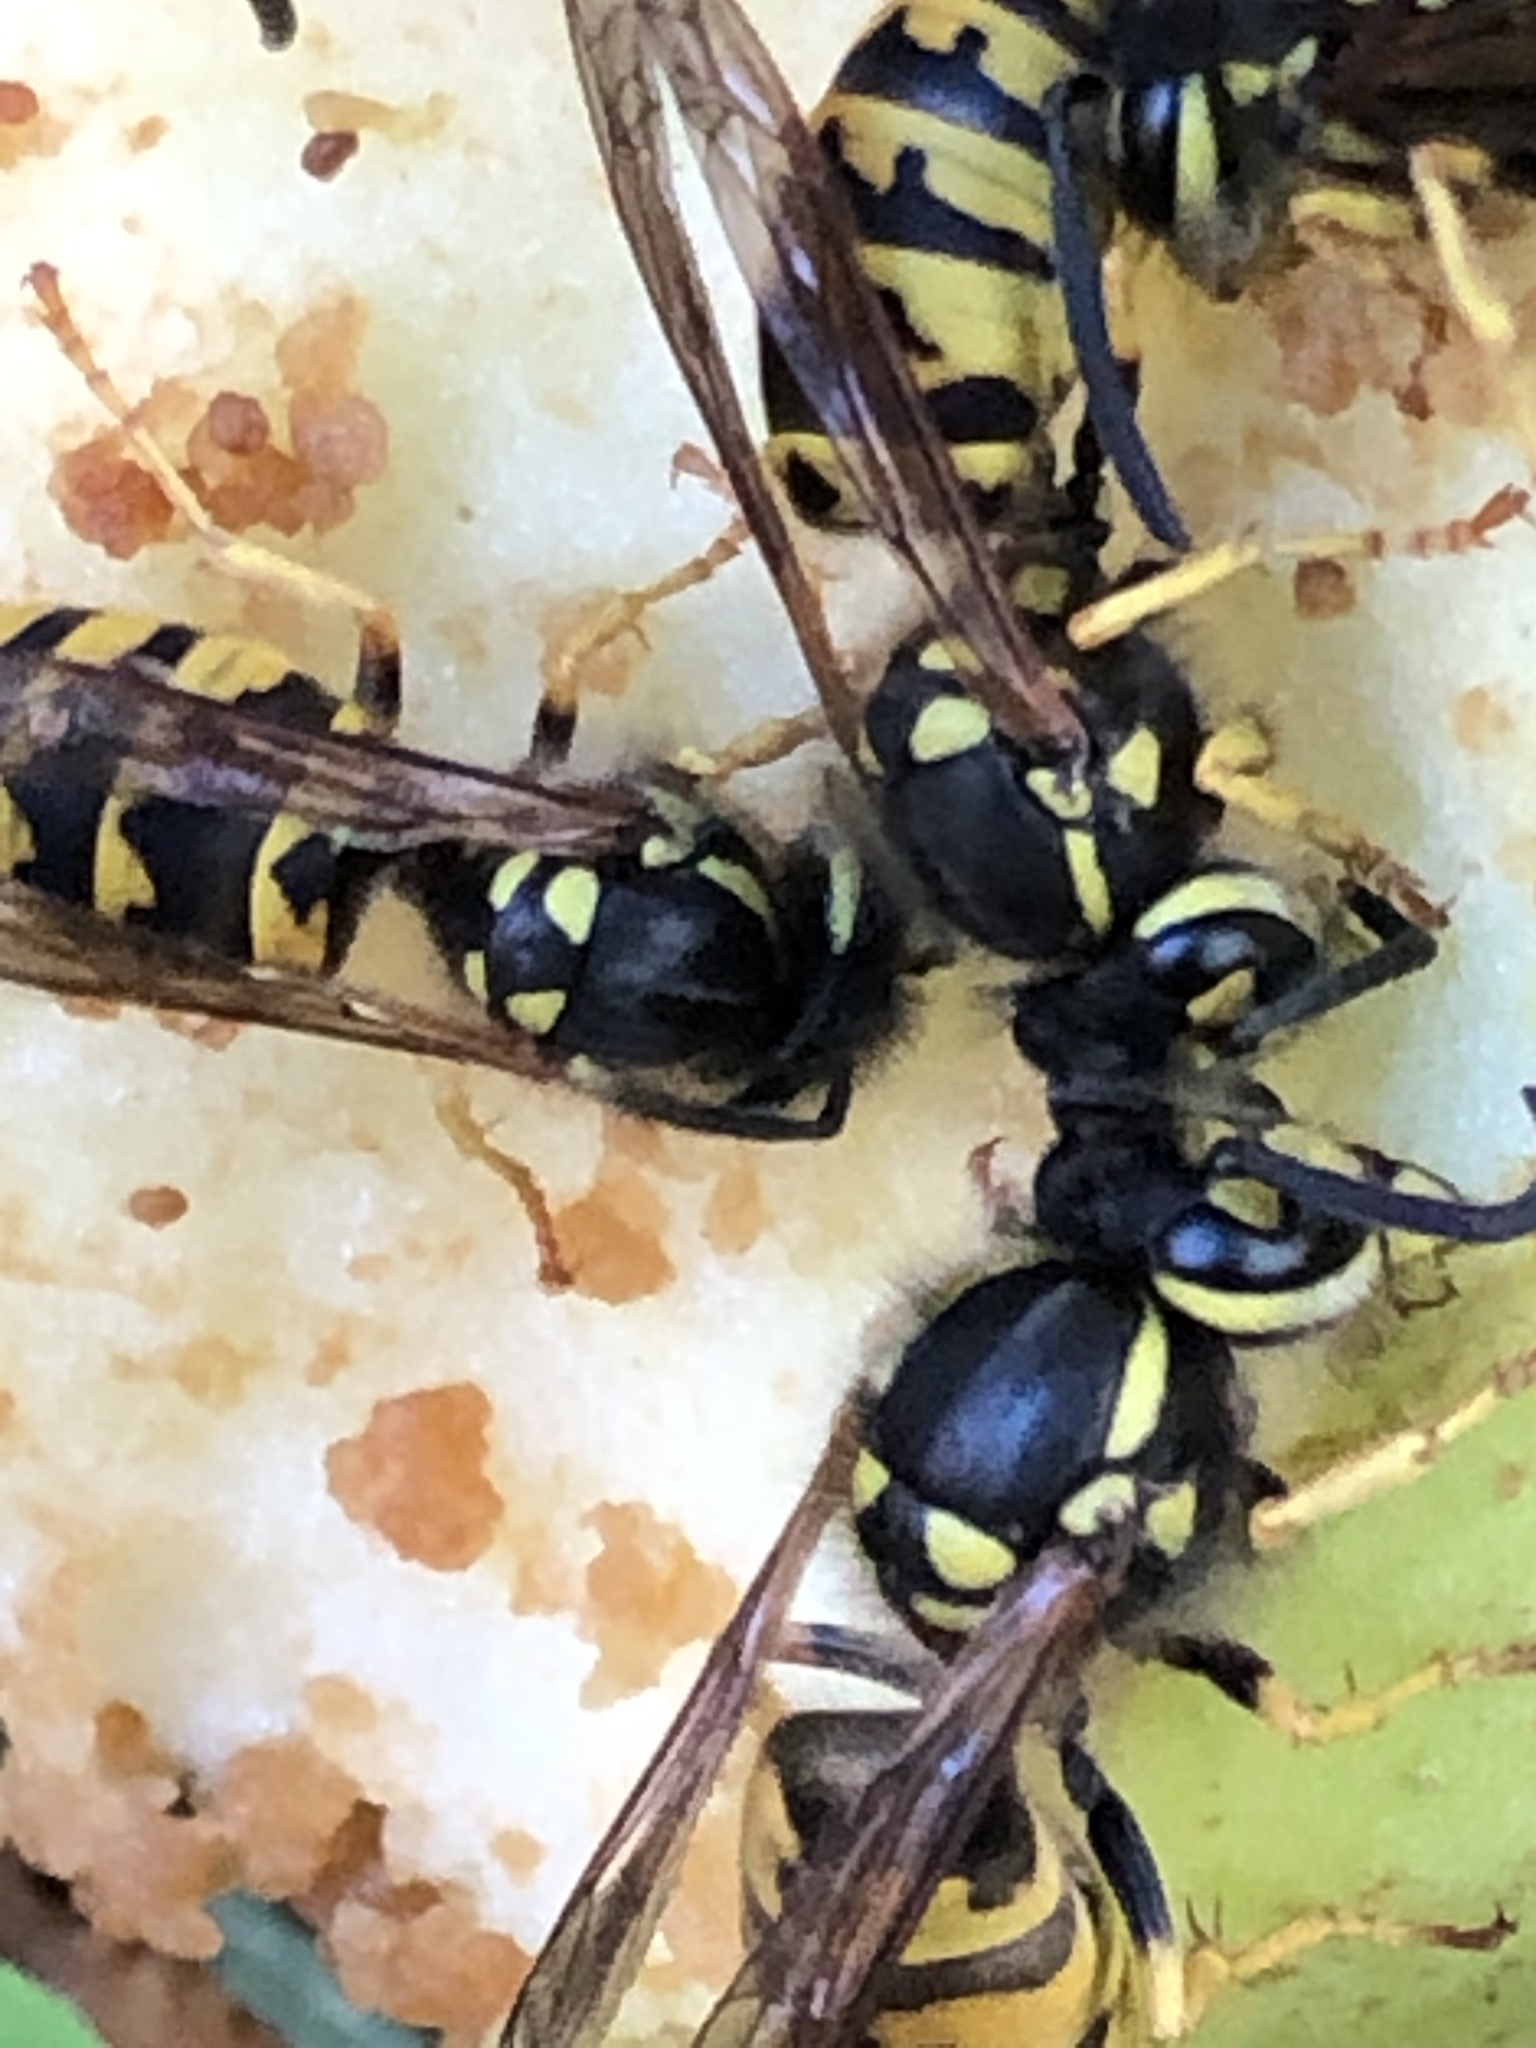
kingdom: Animalia
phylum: Arthropoda
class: Insecta
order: Hymenoptera
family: Vespidae
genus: Vespula
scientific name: Vespula germanica
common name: German wasp
